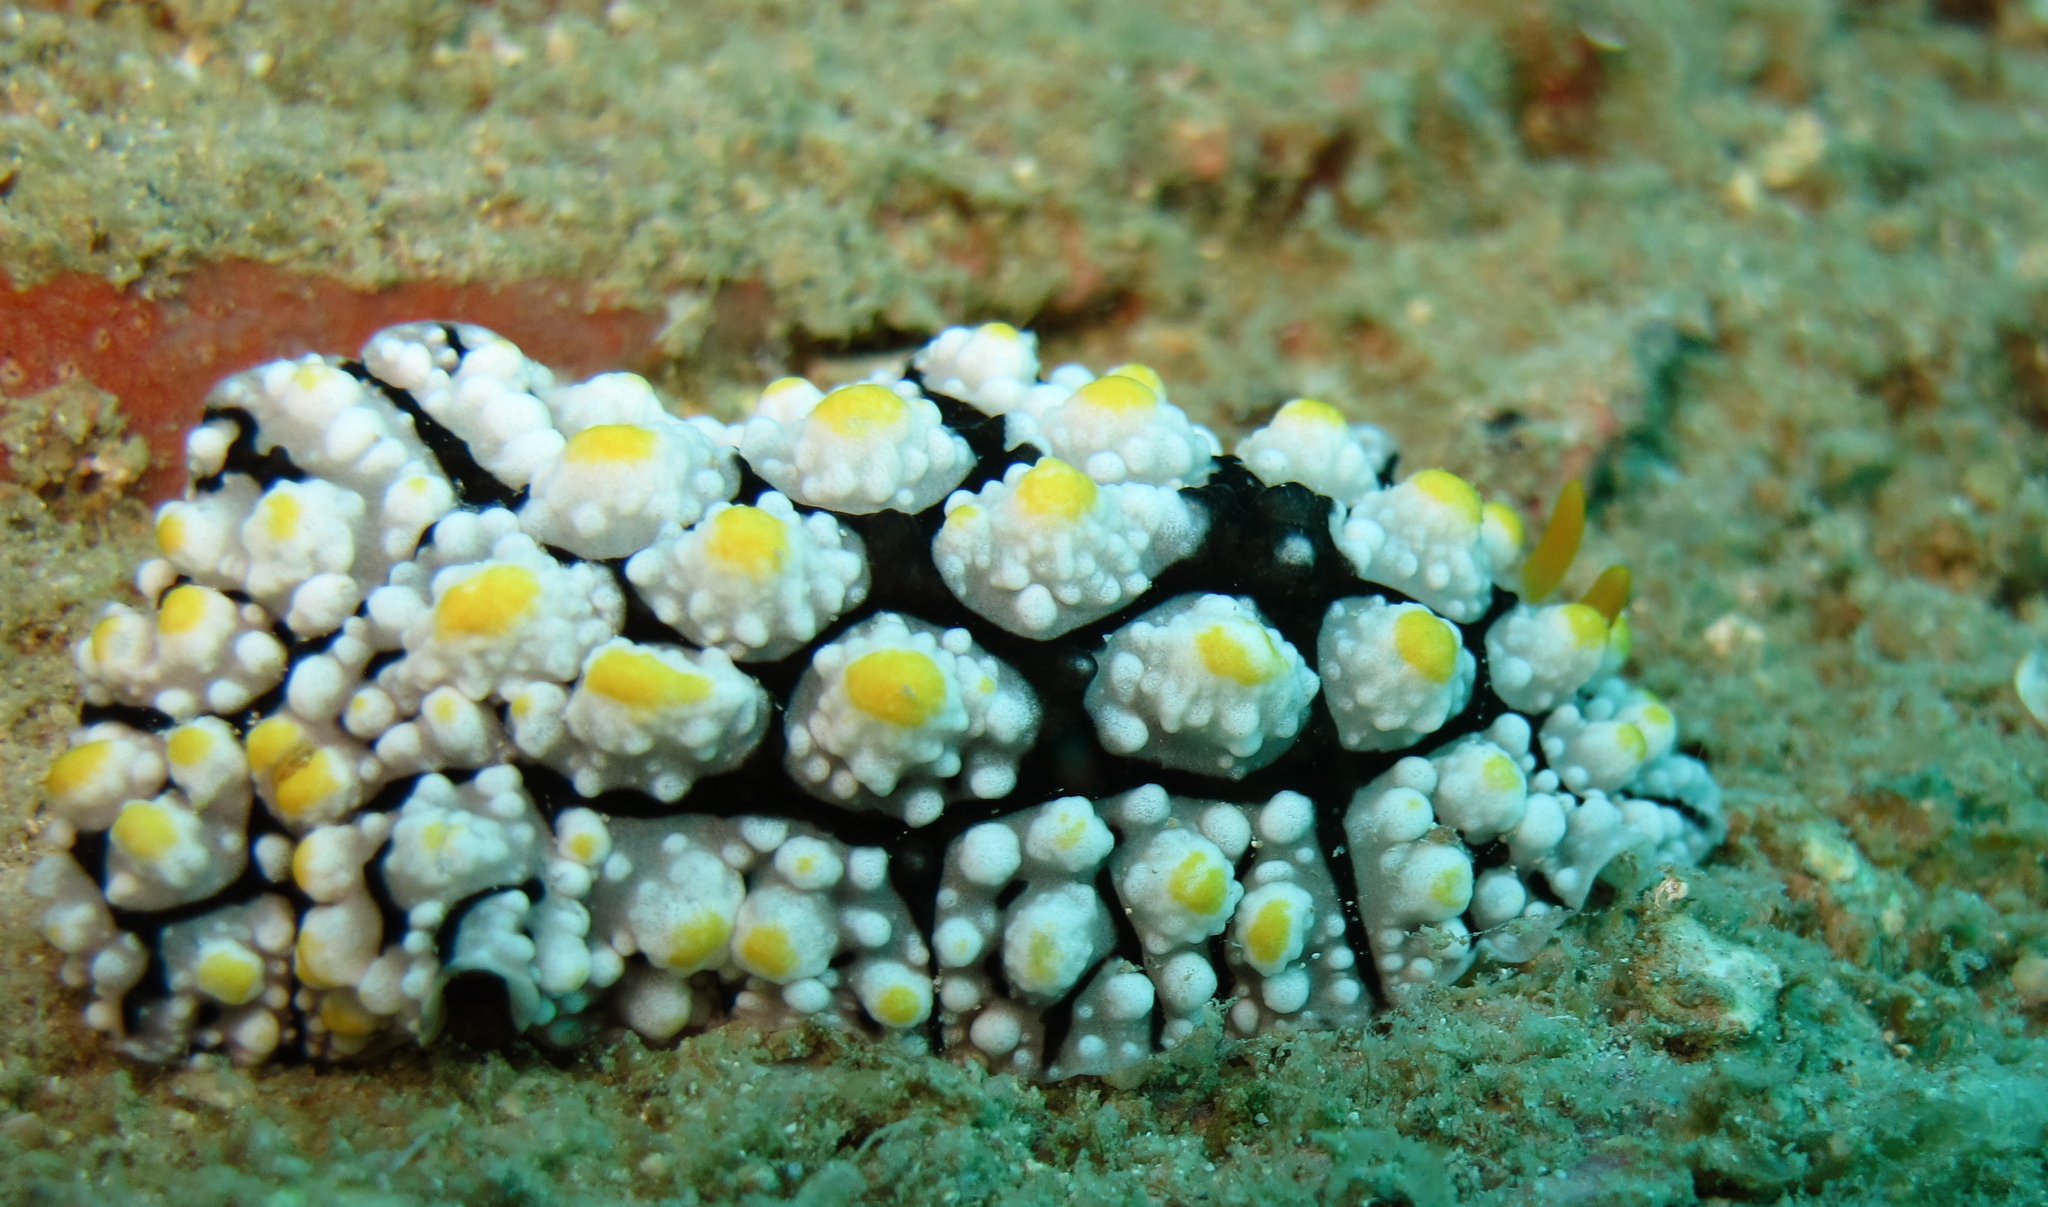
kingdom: Animalia
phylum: Mollusca
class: Gastropoda
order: Nudibranchia
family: Phyllidiidae
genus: Phyllidia
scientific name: Phyllidia elegans
